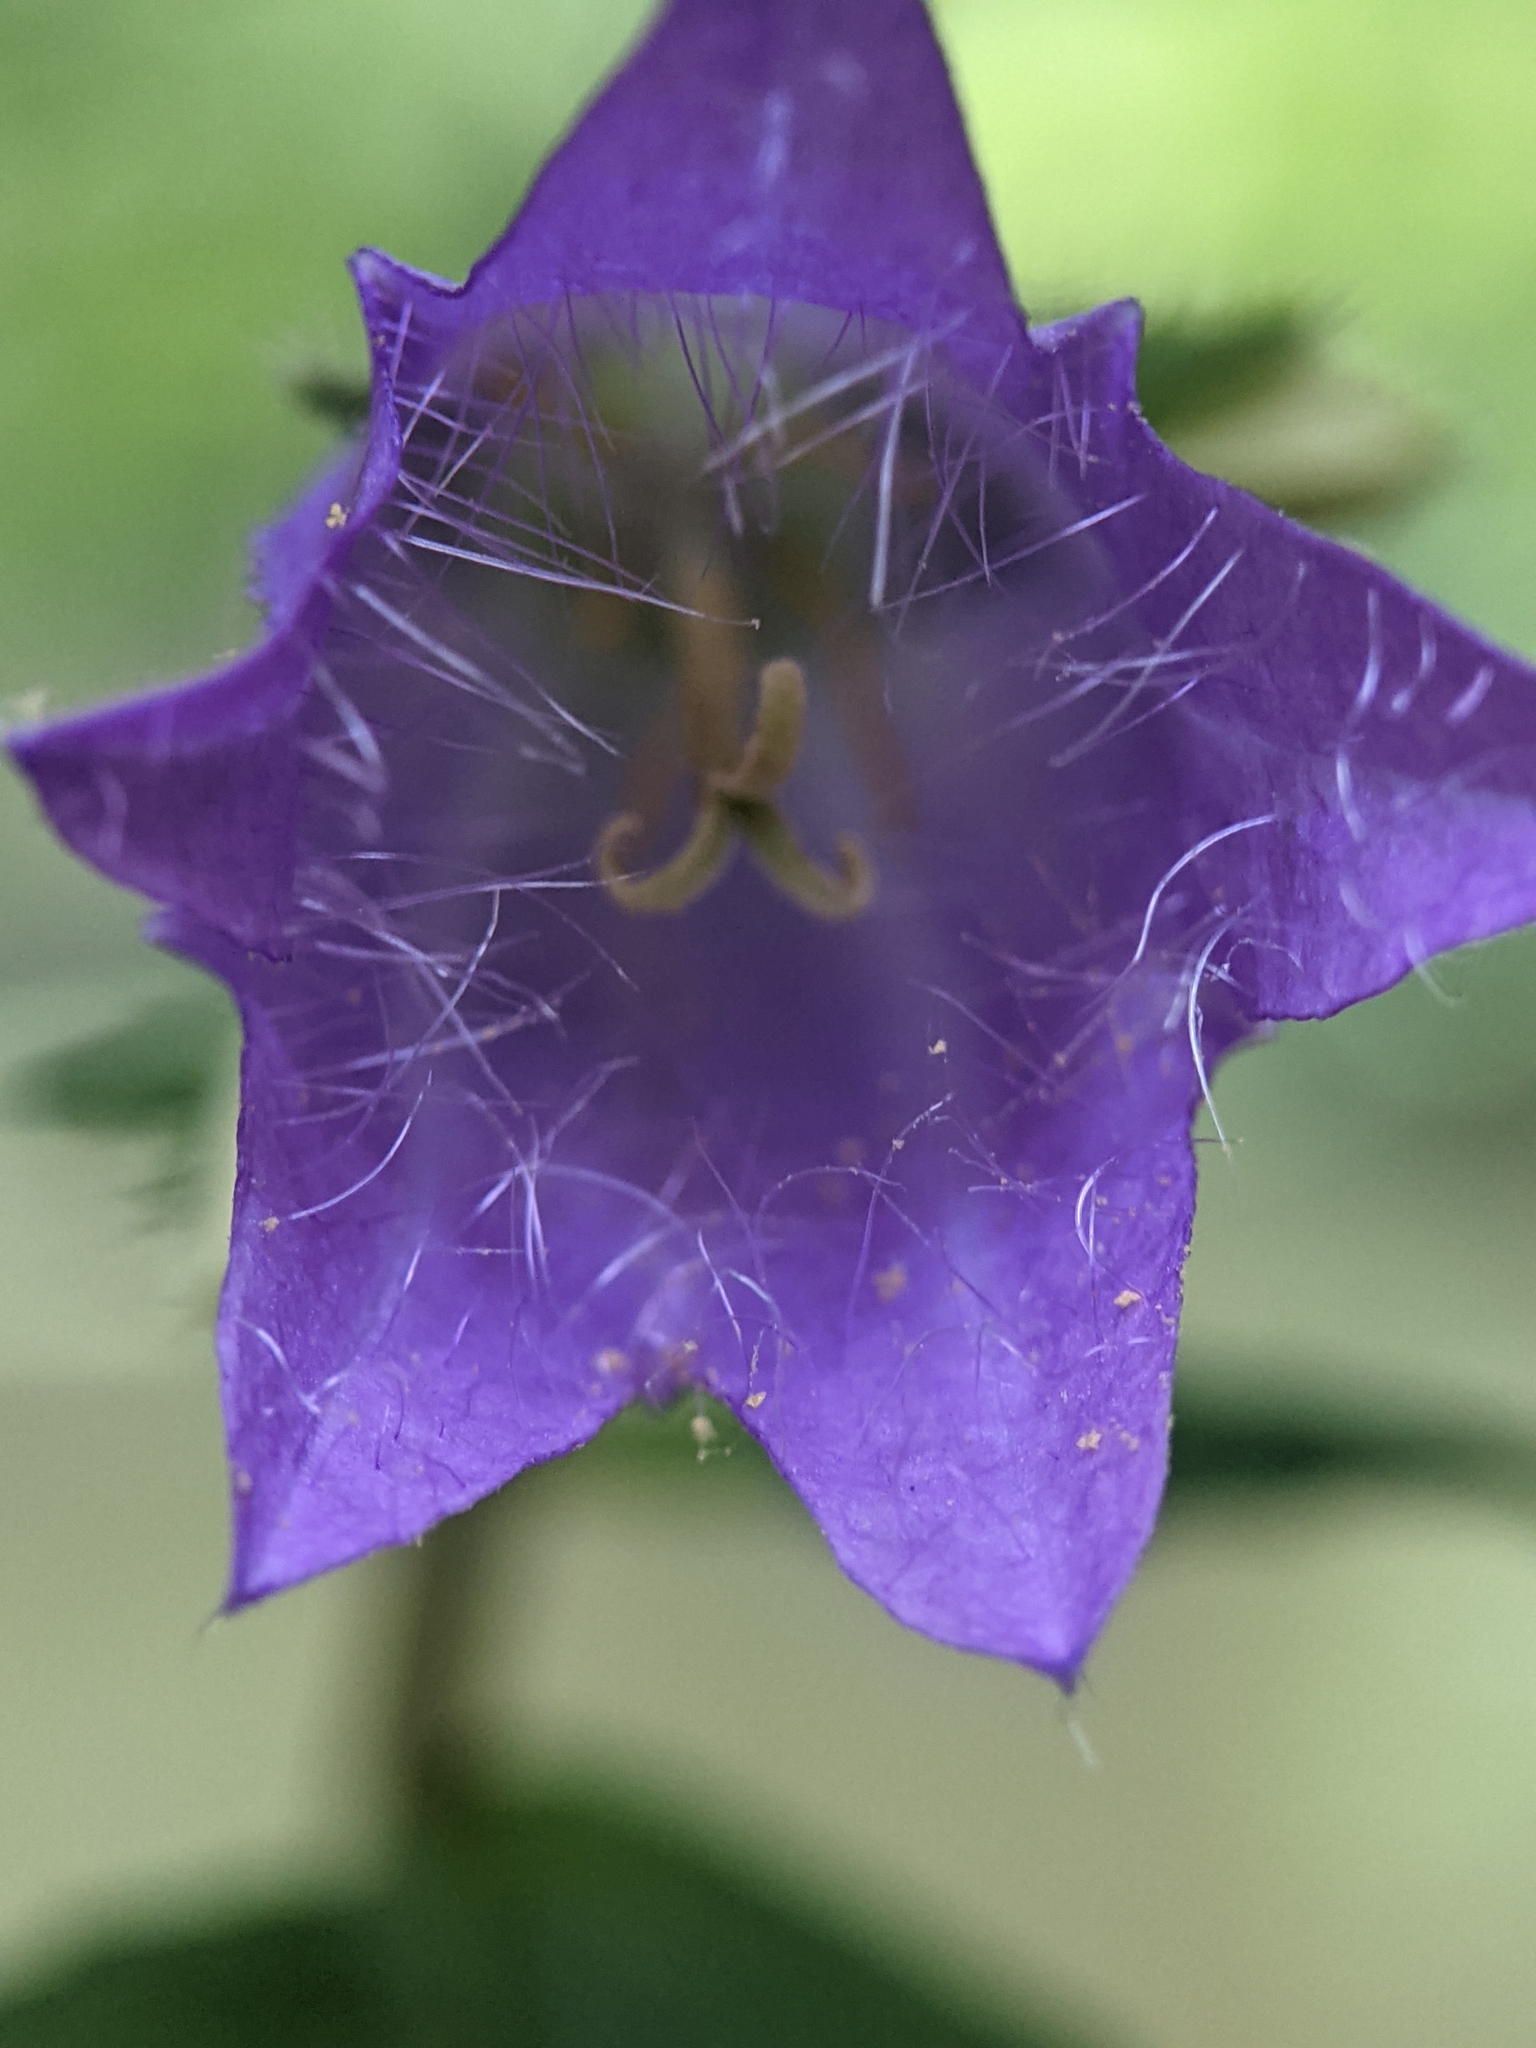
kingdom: Plantae
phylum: Tracheophyta
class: Magnoliopsida
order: Asterales
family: Campanulaceae
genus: Campanula
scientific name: Campanula trachelium
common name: Nettle-leaved bellflower
